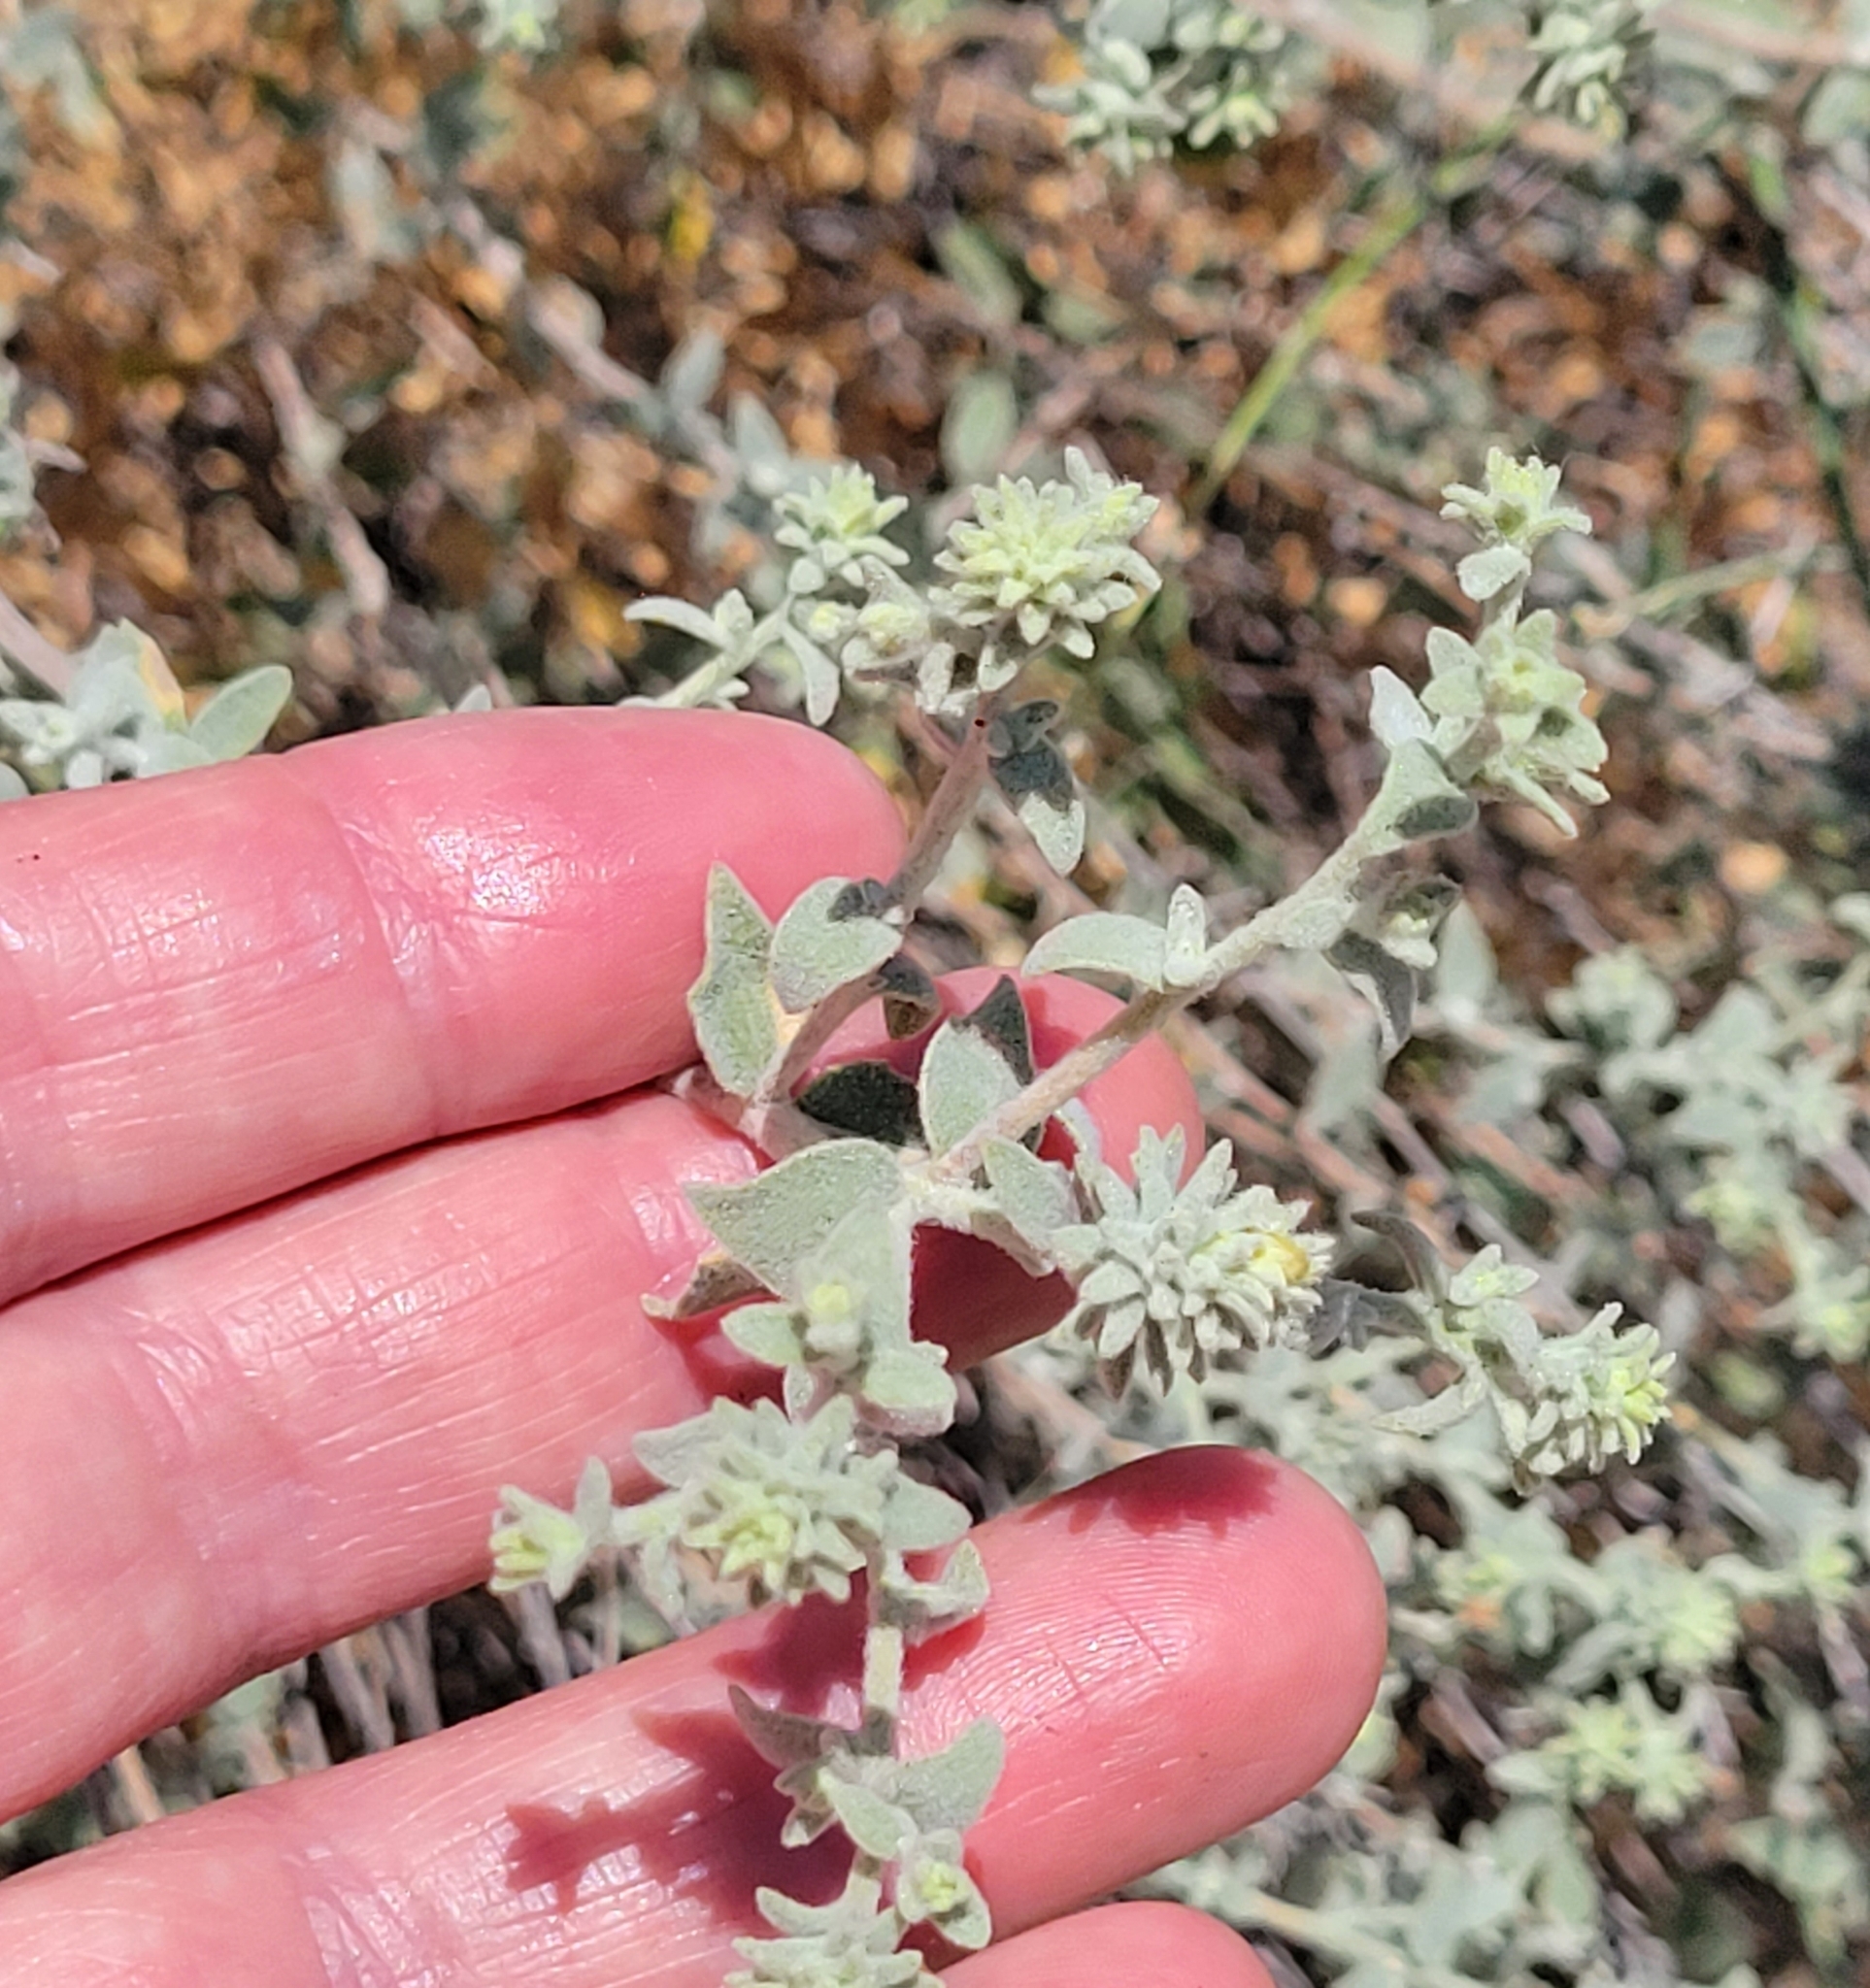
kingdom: Plantae
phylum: Tracheophyta
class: Magnoliopsida
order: Asterales
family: Asteraceae
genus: Brickellia
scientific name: Brickellia nevinii
